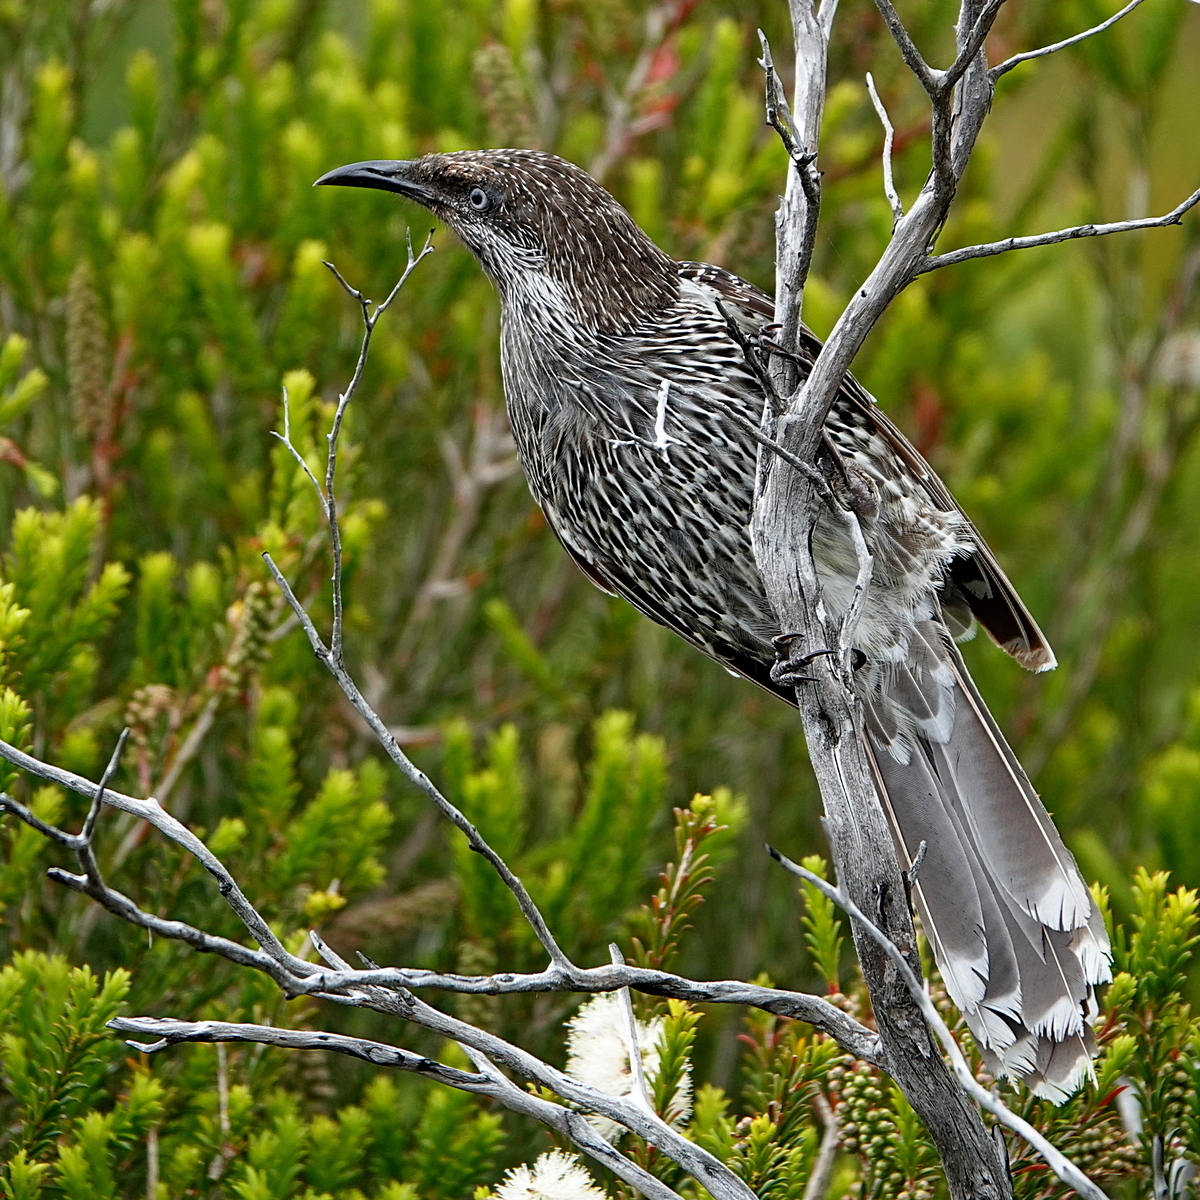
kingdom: Animalia
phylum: Chordata
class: Aves
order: Passeriformes
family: Meliphagidae
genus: Anthochaera
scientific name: Anthochaera chrysoptera
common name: Little wattlebird
